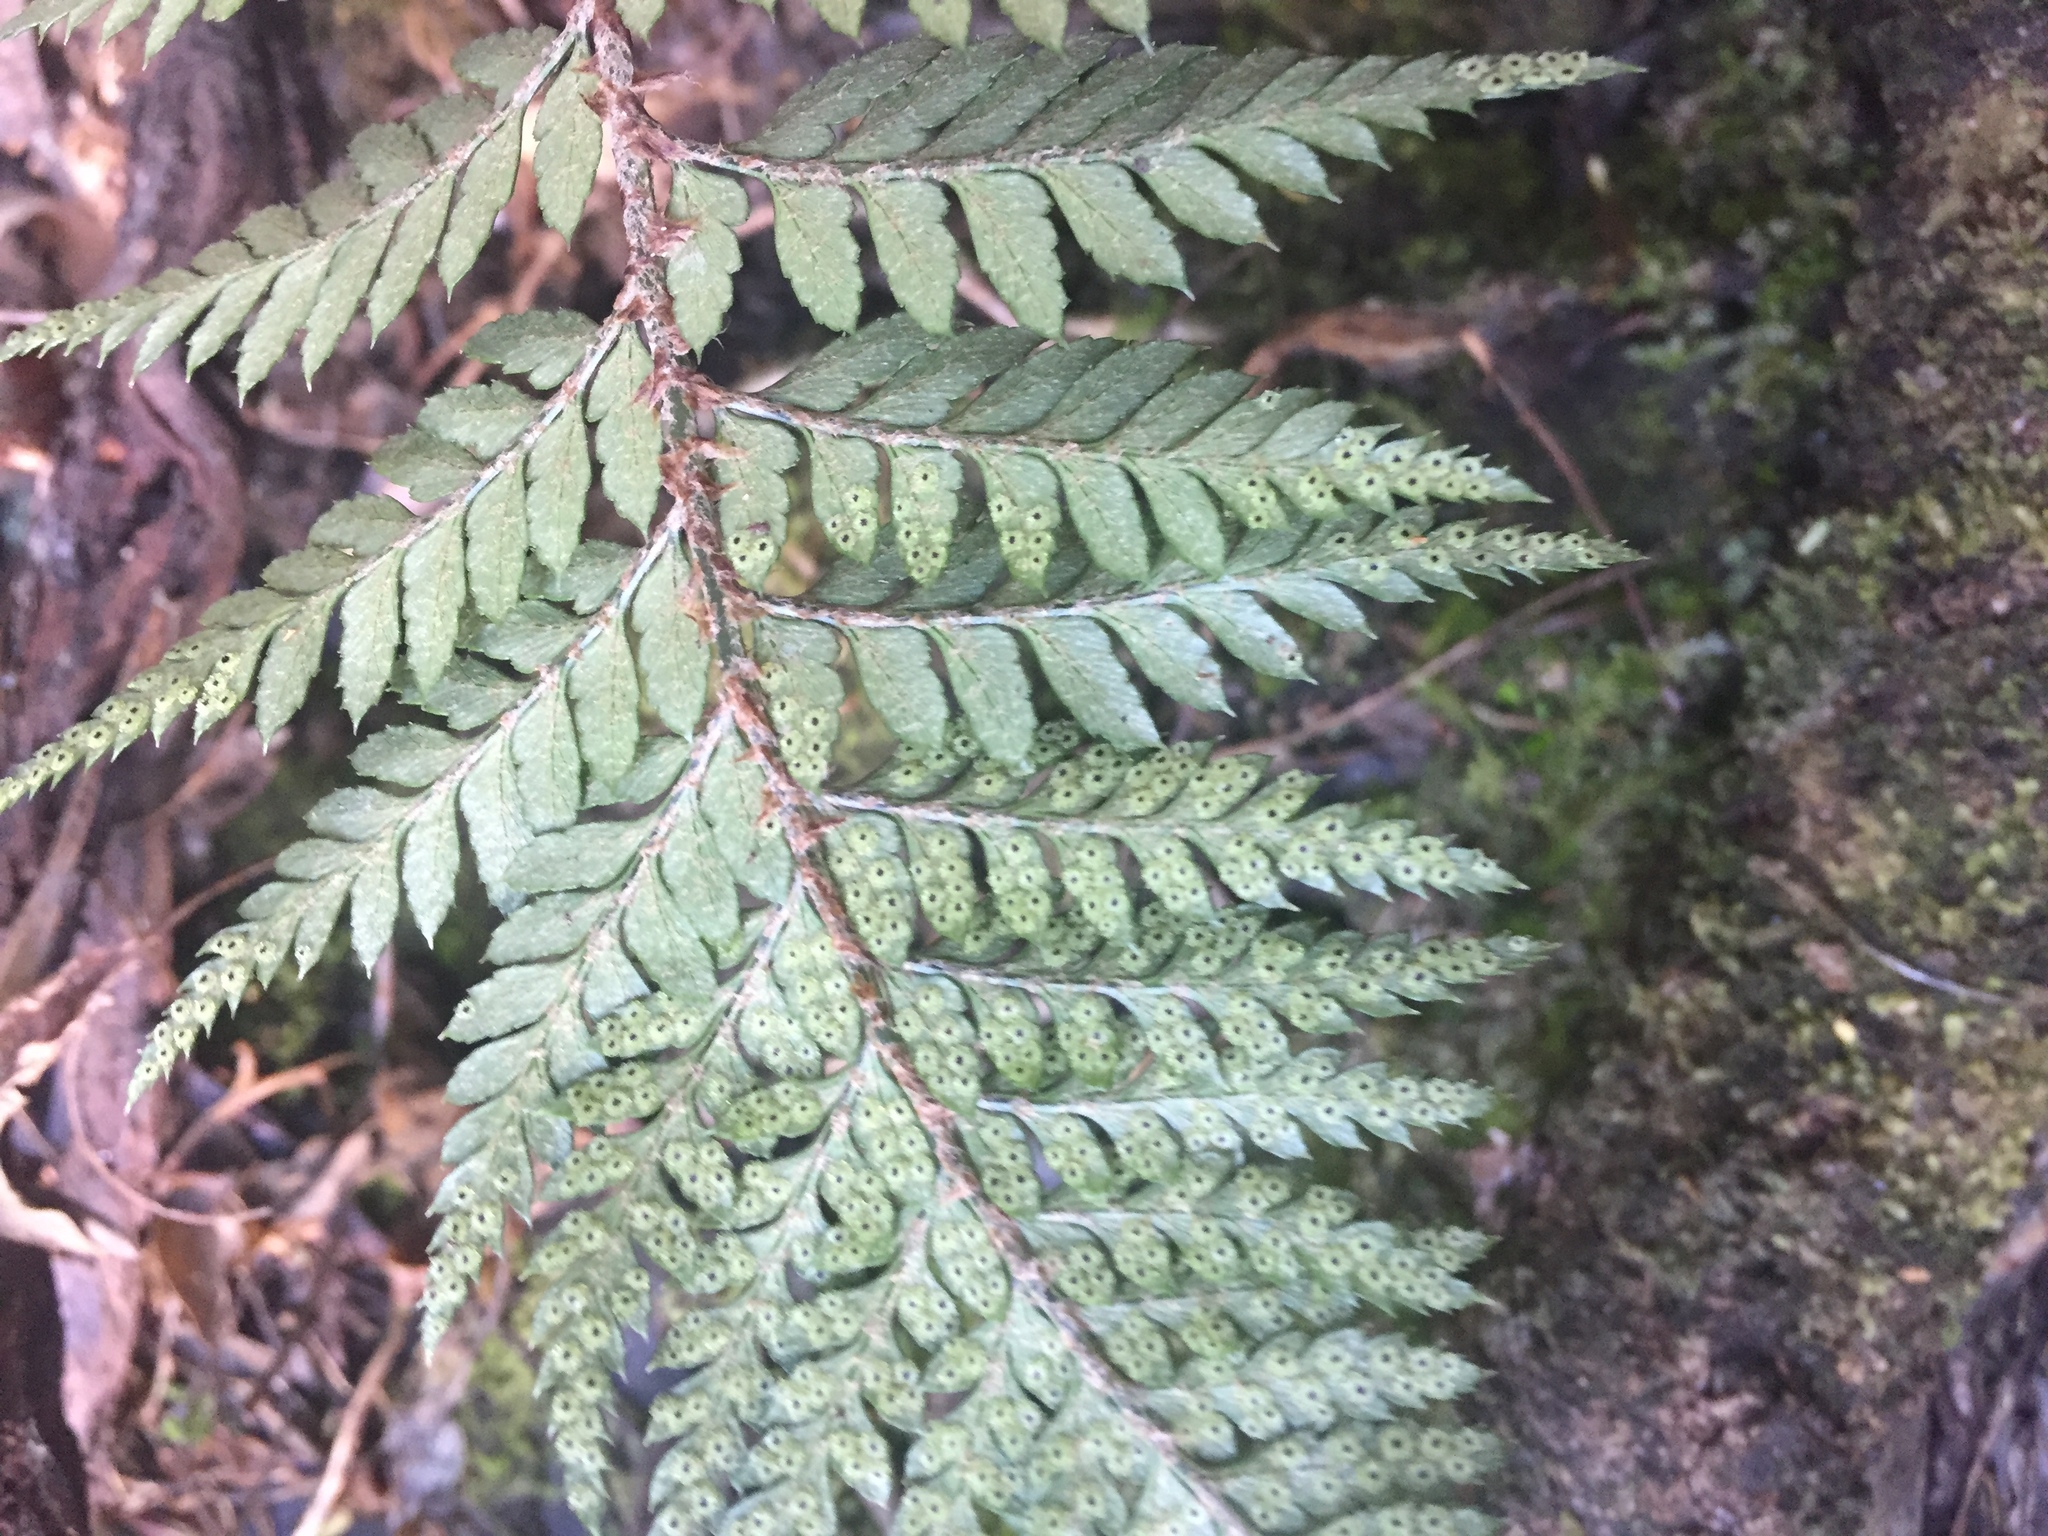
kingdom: Plantae
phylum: Tracheophyta
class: Polypodiopsida
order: Polypodiales
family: Dryopteridaceae
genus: Polystichum
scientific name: Polystichum neozelandicum
